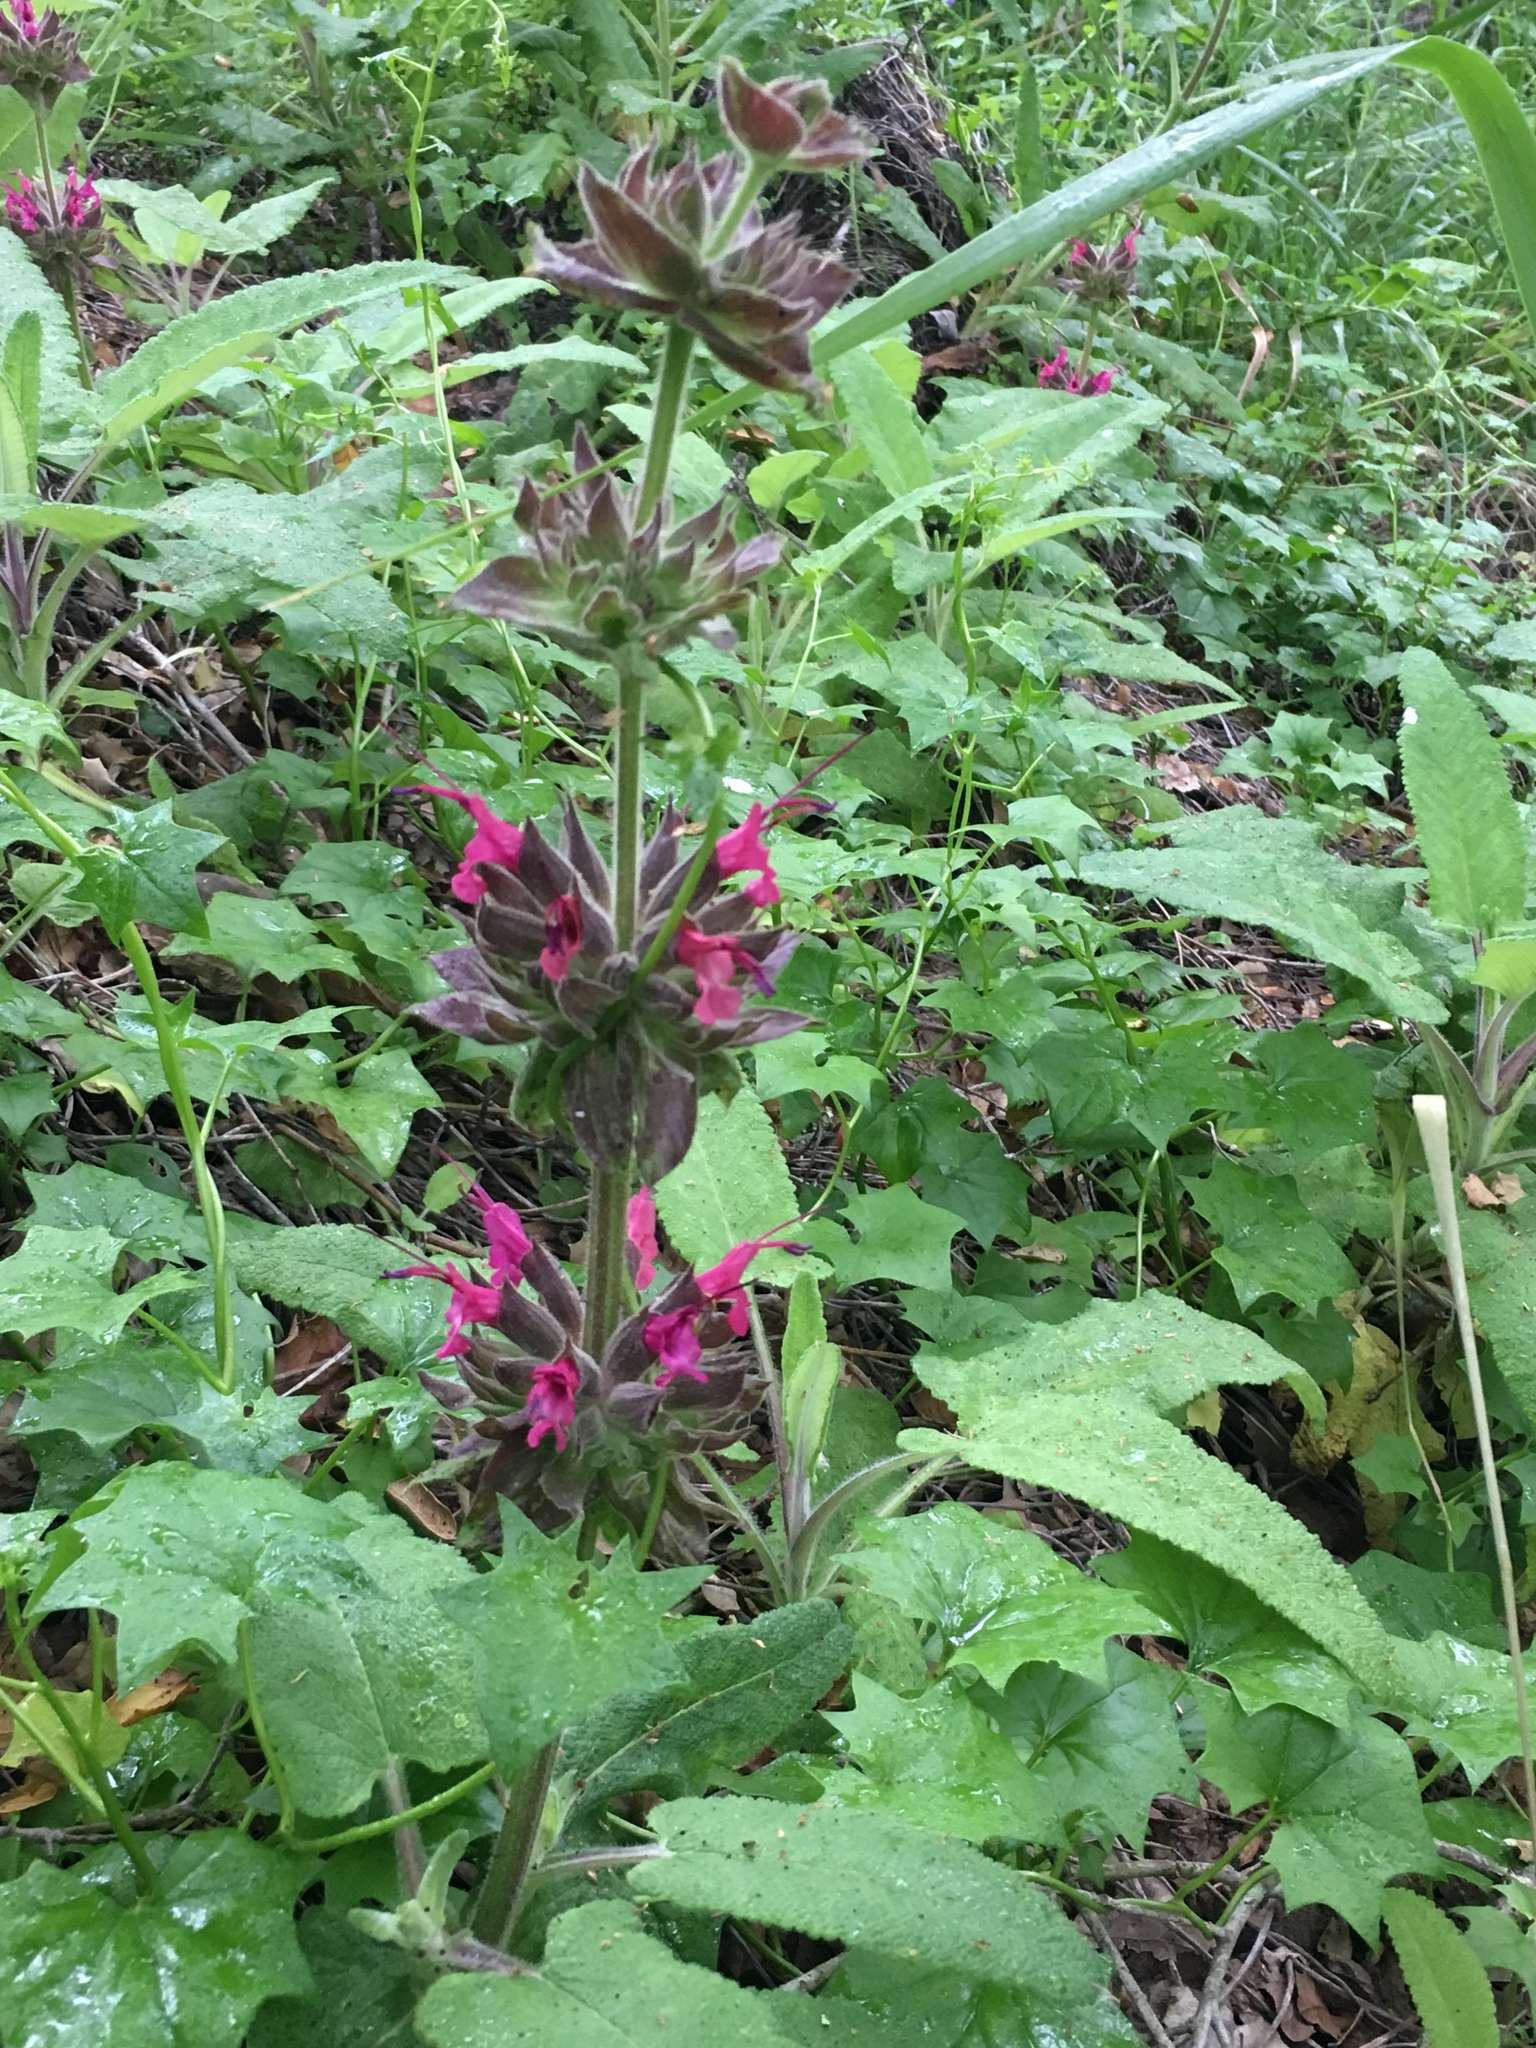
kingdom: Plantae
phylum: Tracheophyta
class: Magnoliopsida
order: Lamiales
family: Lamiaceae
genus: Salvia
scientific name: Salvia spathacea
